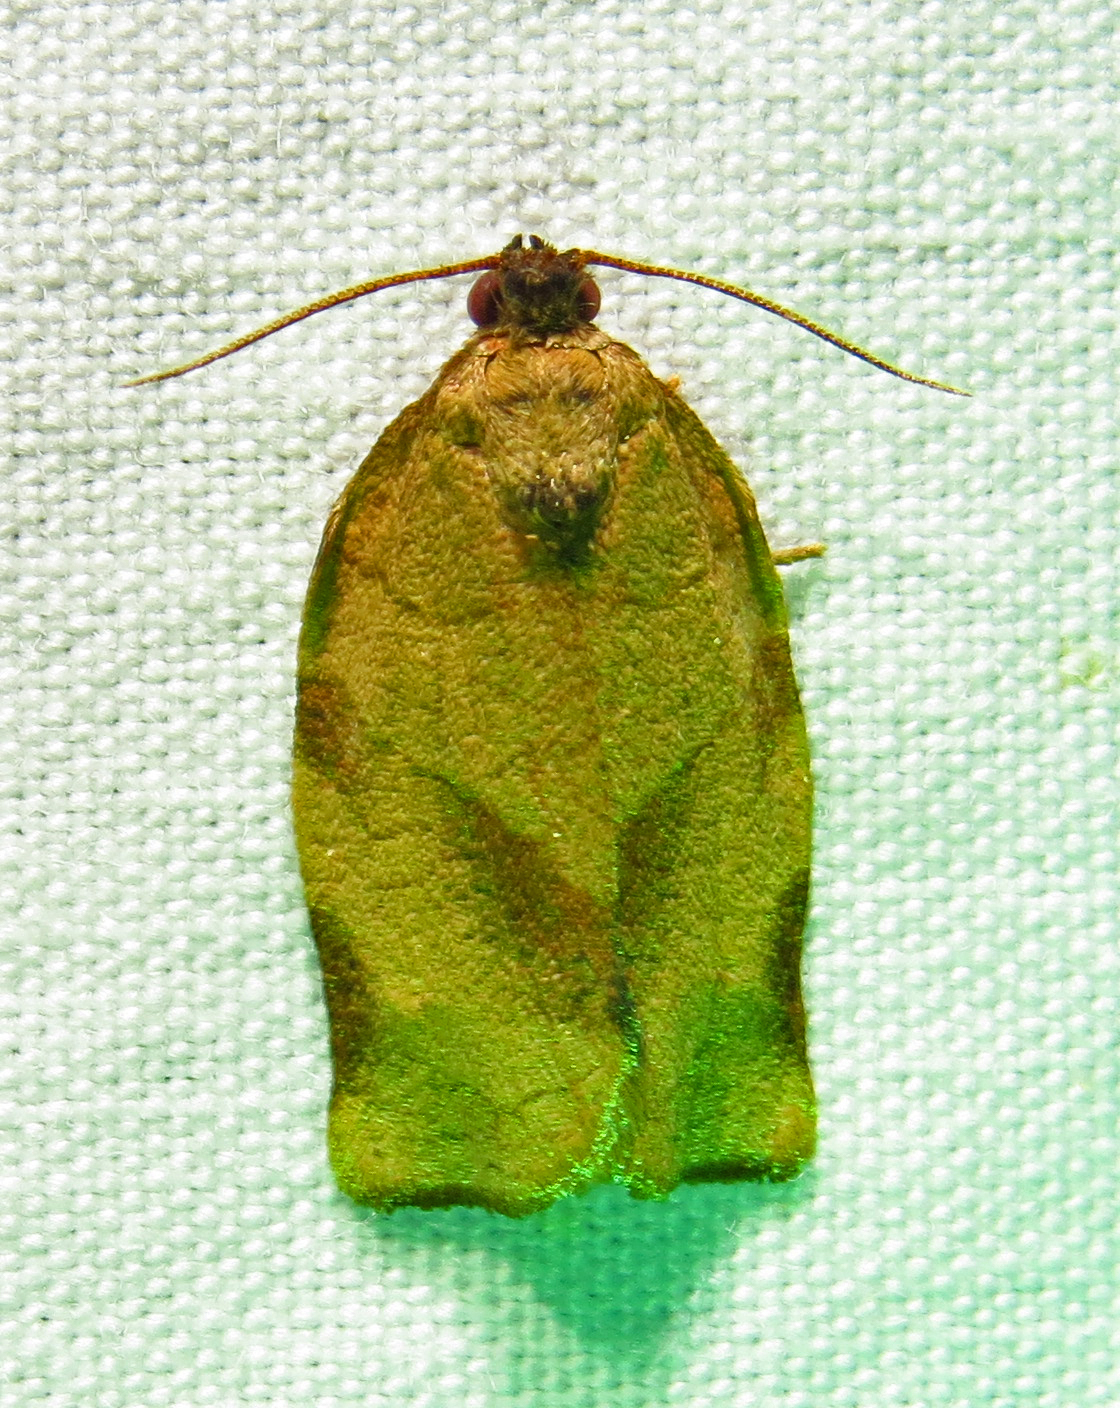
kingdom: Animalia
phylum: Arthropoda
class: Insecta
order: Lepidoptera
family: Tortricidae
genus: Choristoneura
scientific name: Choristoneura rosaceana
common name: Oblique-banded leafroller moth
